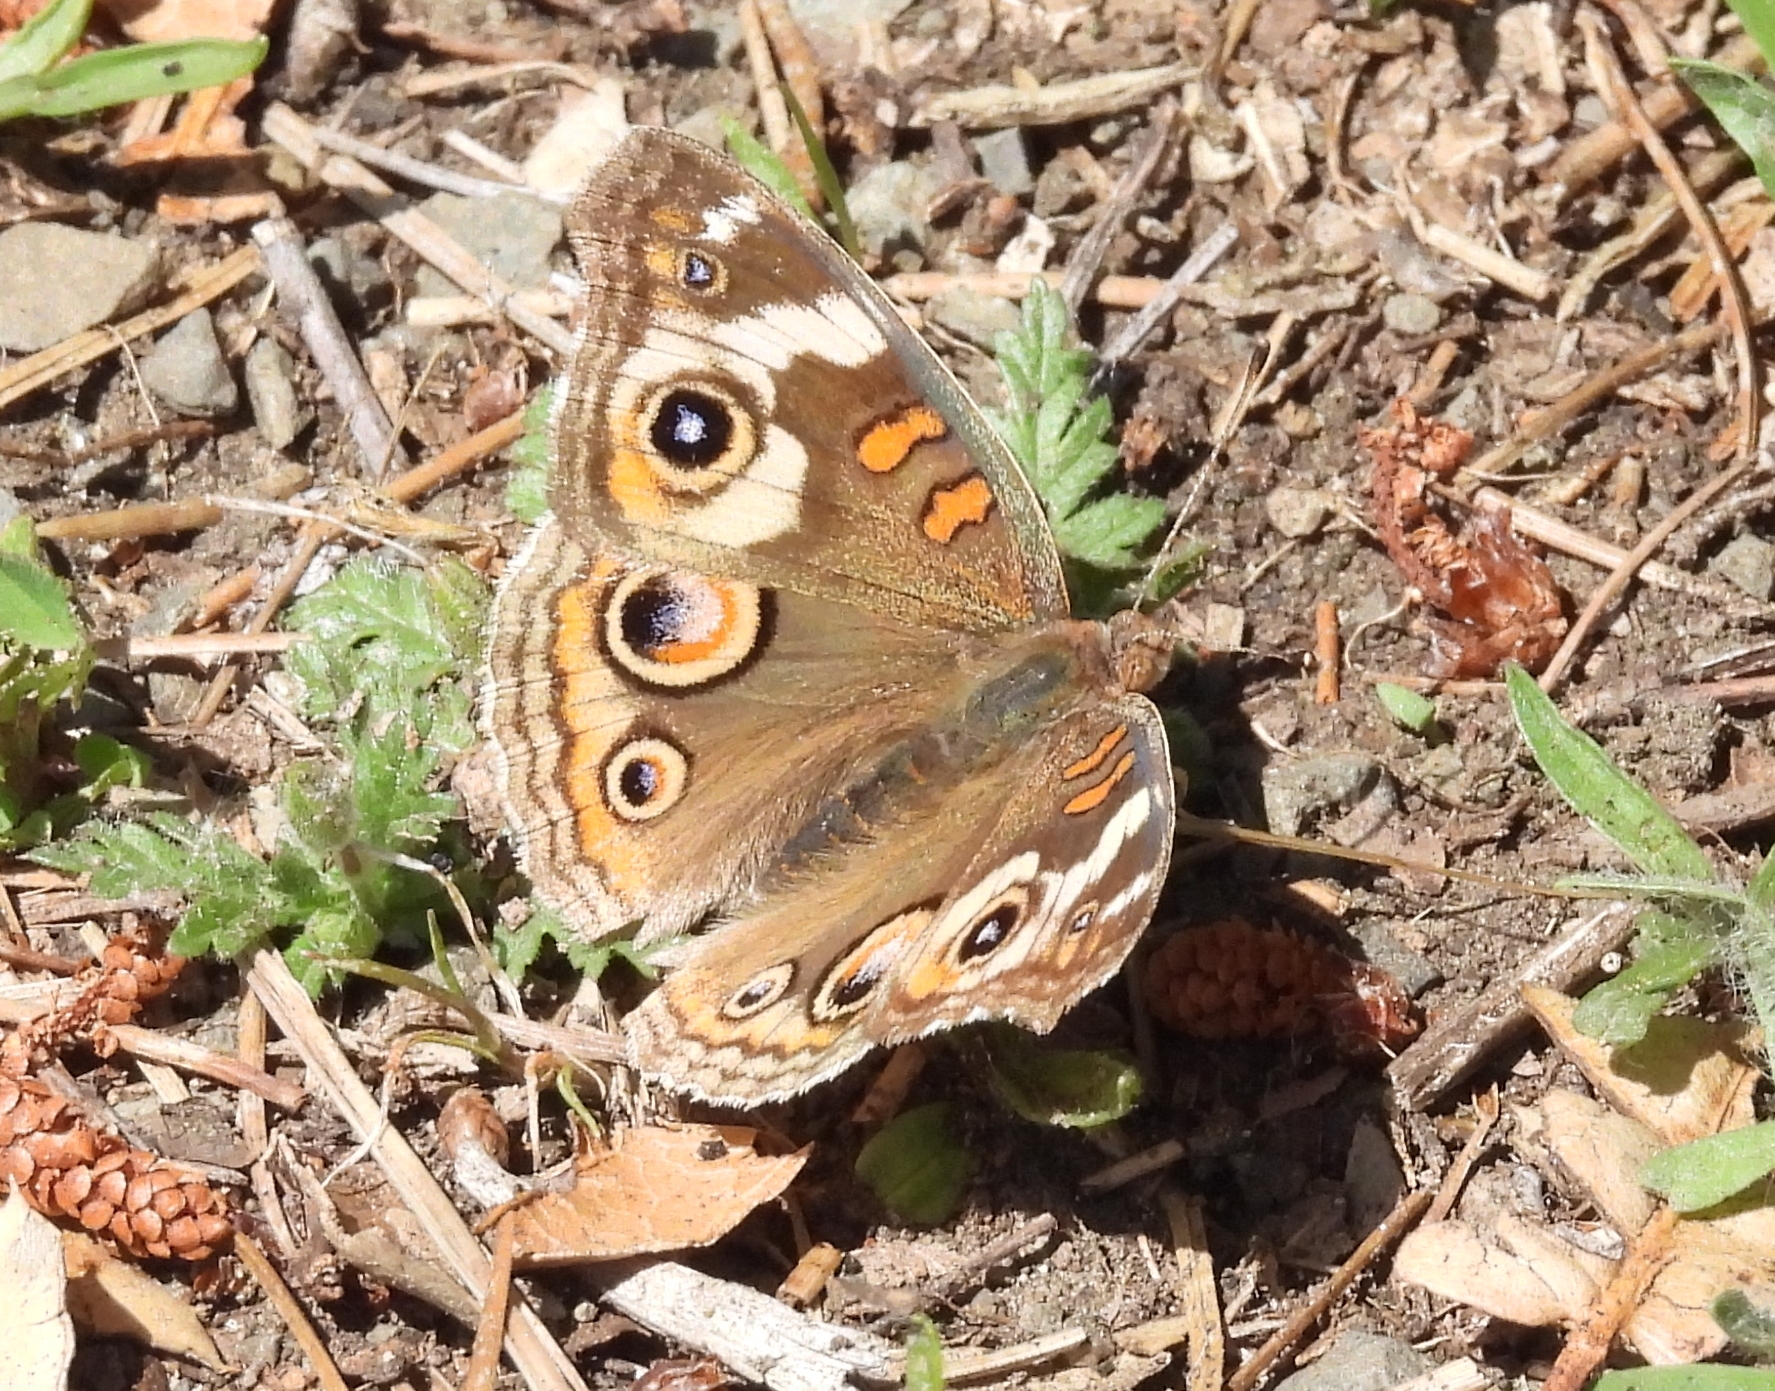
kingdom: Animalia
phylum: Arthropoda
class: Insecta
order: Lepidoptera
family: Nymphalidae
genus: Junonia
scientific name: Junonia grisea
